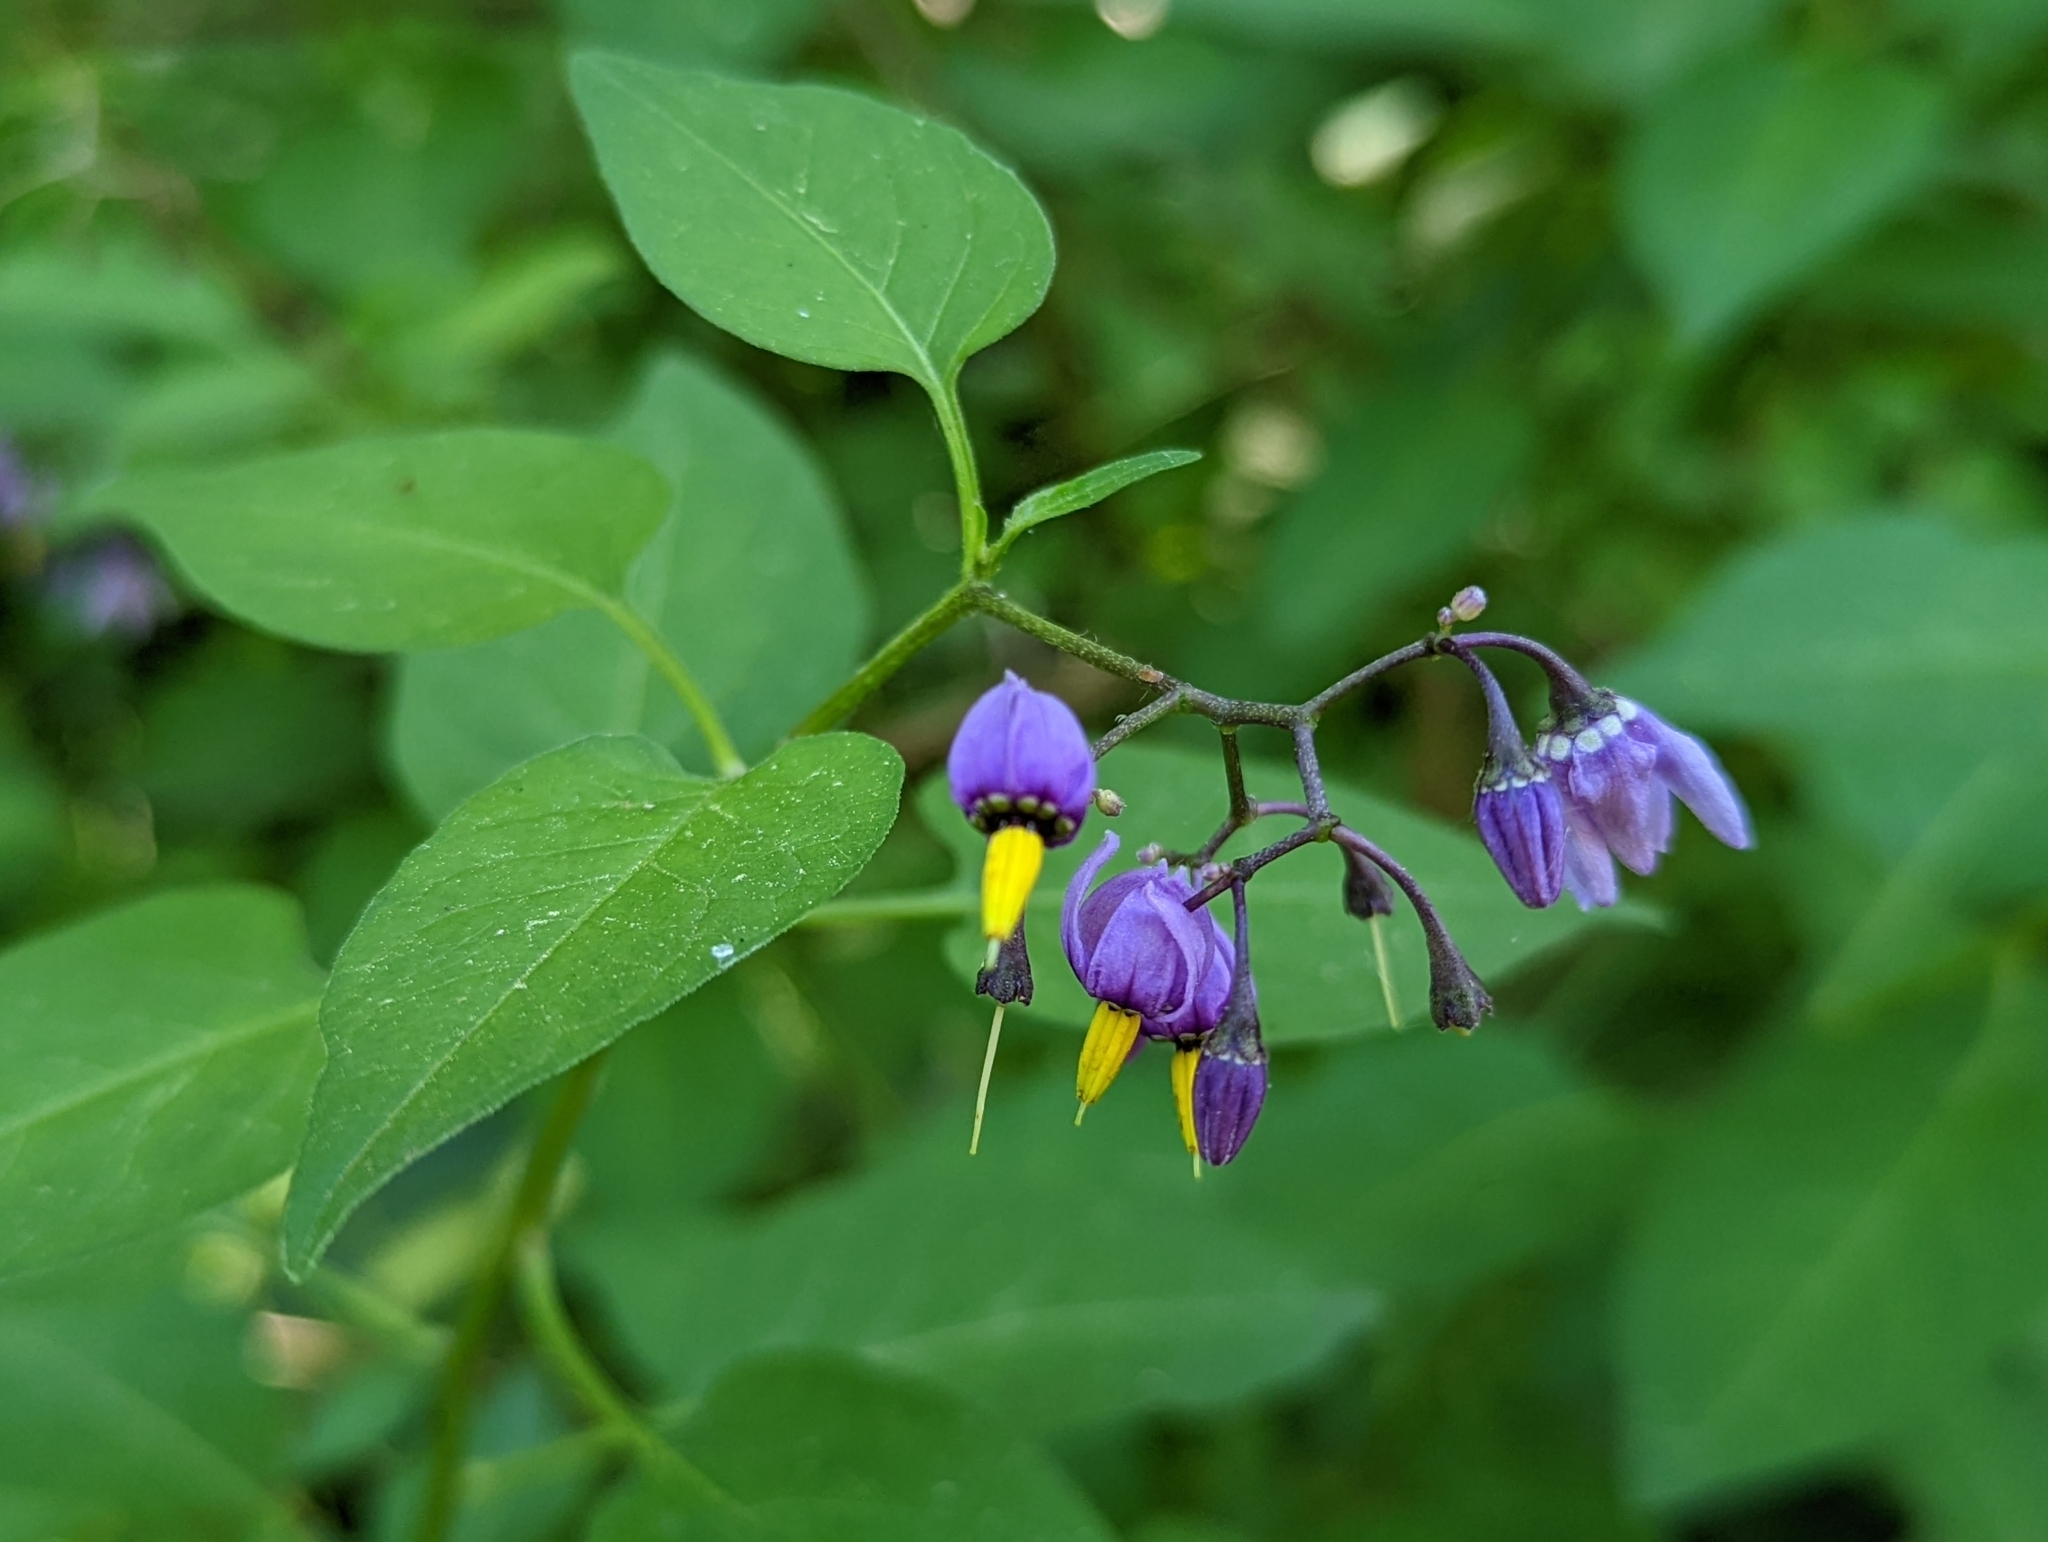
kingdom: Plantae
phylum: Tracheophyta
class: Magnoliopsida
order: Solanales
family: Solanaceae
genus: Solanum
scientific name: Solanum dulcamara
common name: Climbing nightshade
